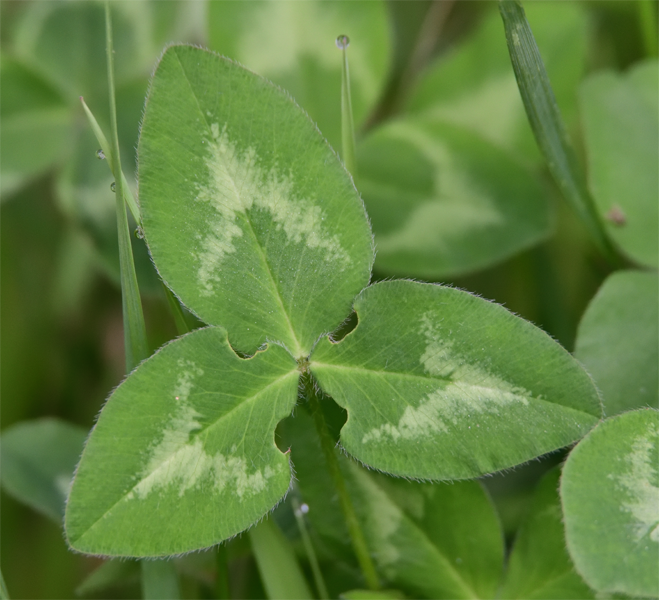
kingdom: Plantae
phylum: Tracheophyta
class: Magnoliopsida
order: Fabales
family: Fabaceae
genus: Trifolium
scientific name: Trifolium pratense
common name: Red clover
